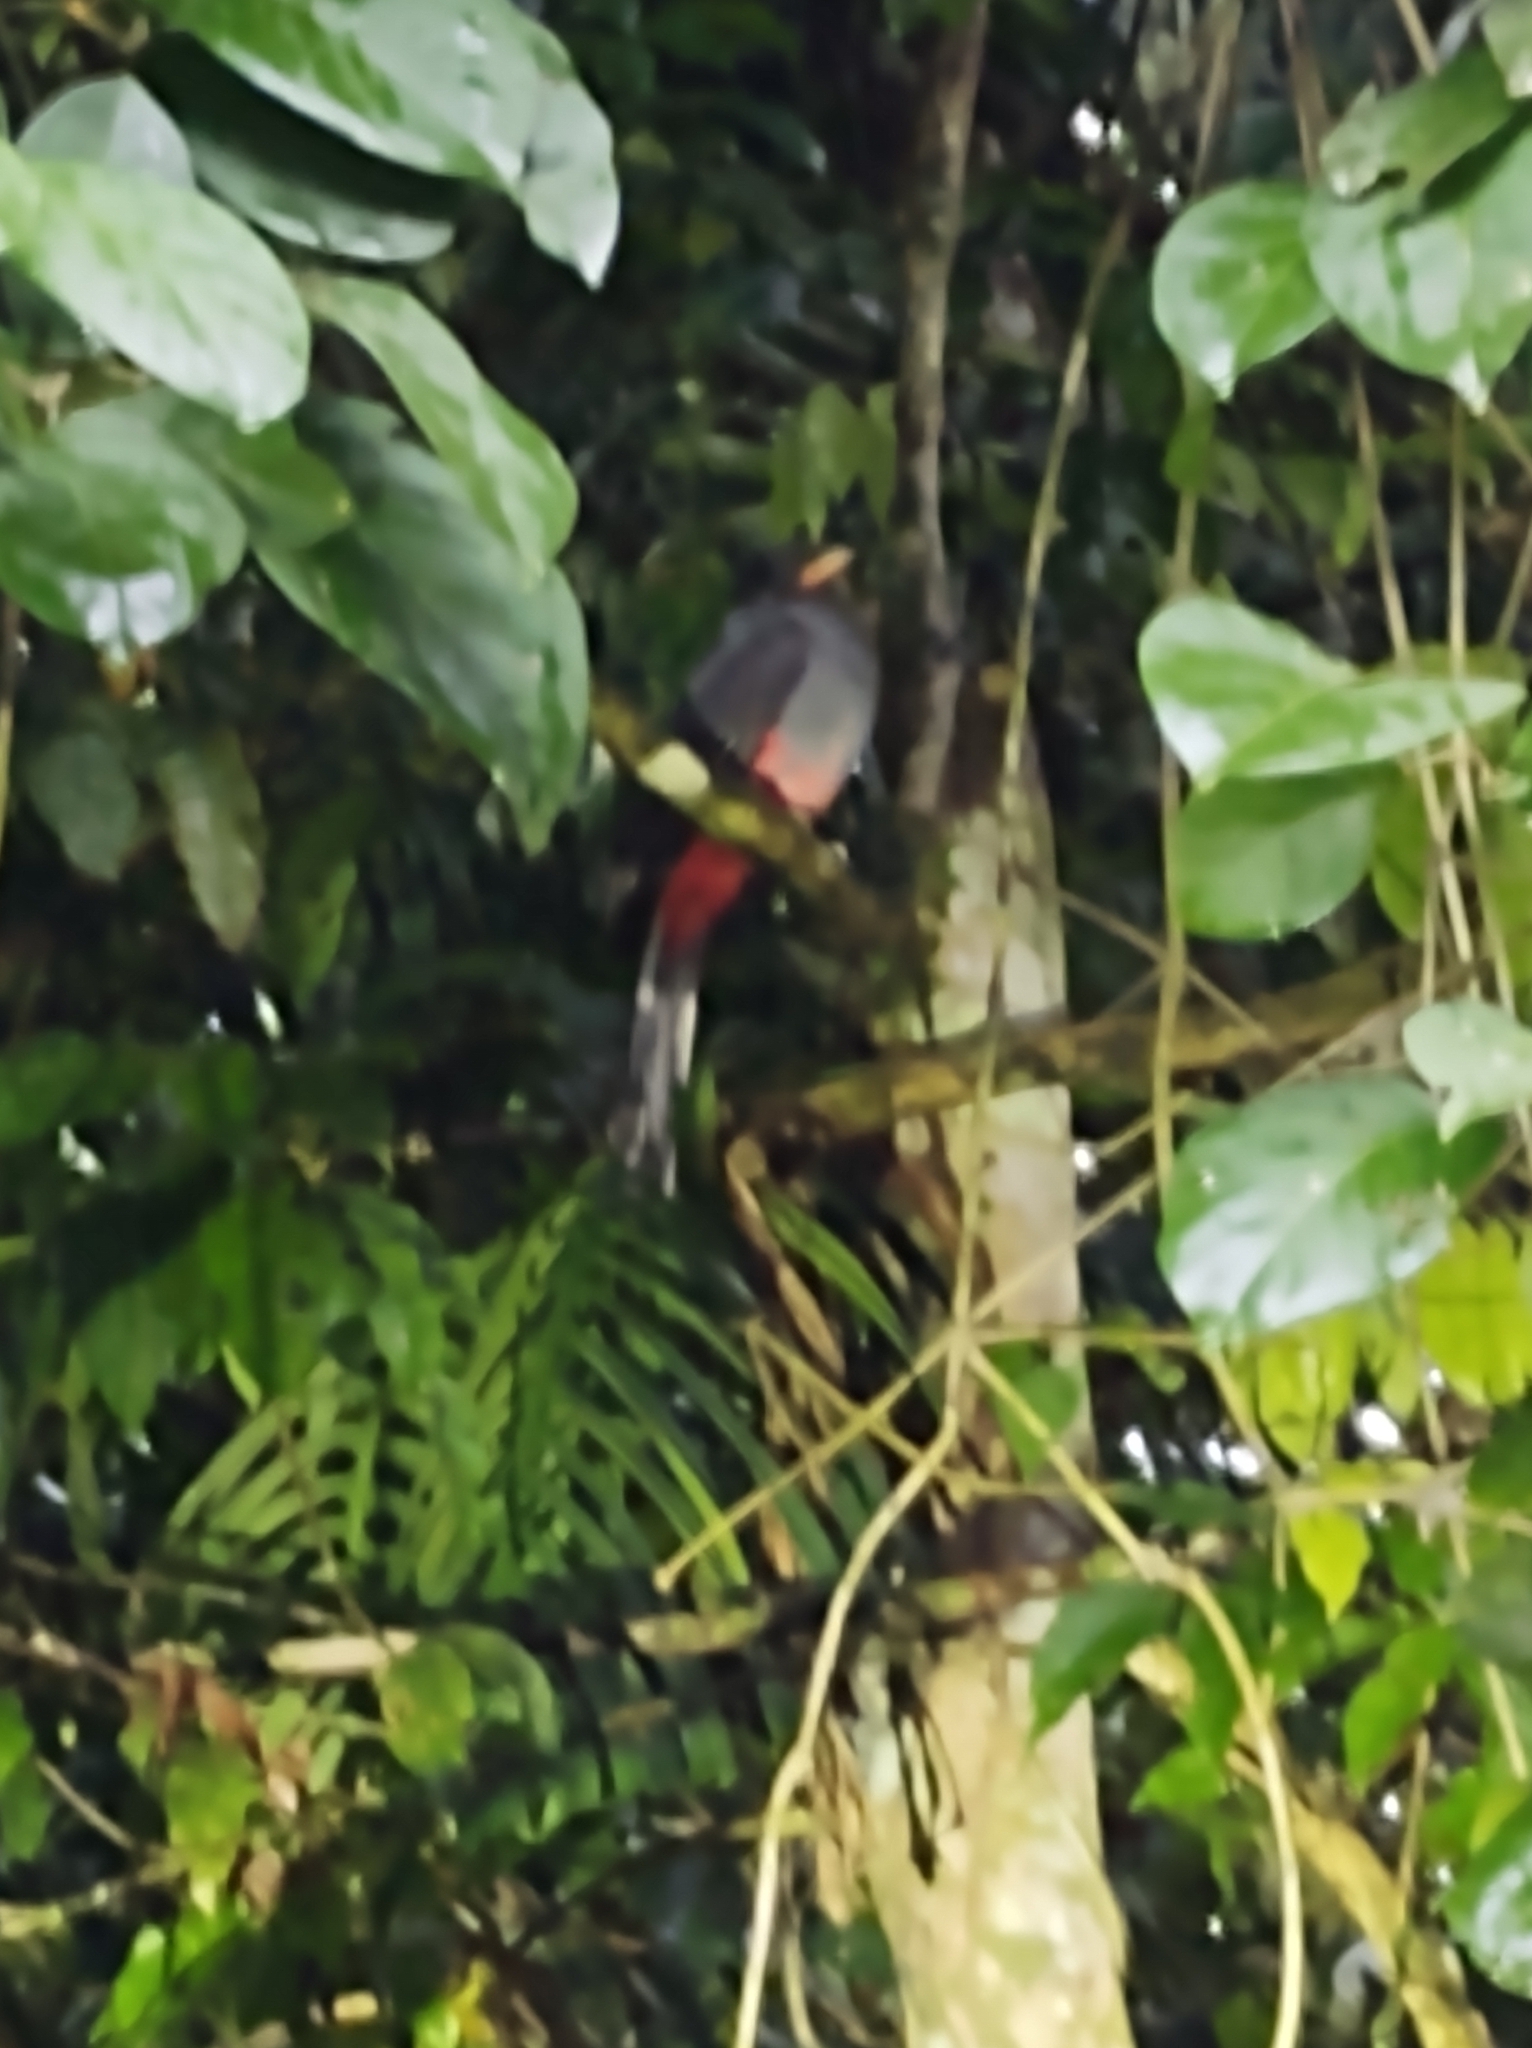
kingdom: Animalia
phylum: Chordata
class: Aves
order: Trogoniformes
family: Trogonidae
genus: Trogon
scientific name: Trogon massena
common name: Slaty-tailed trogon
